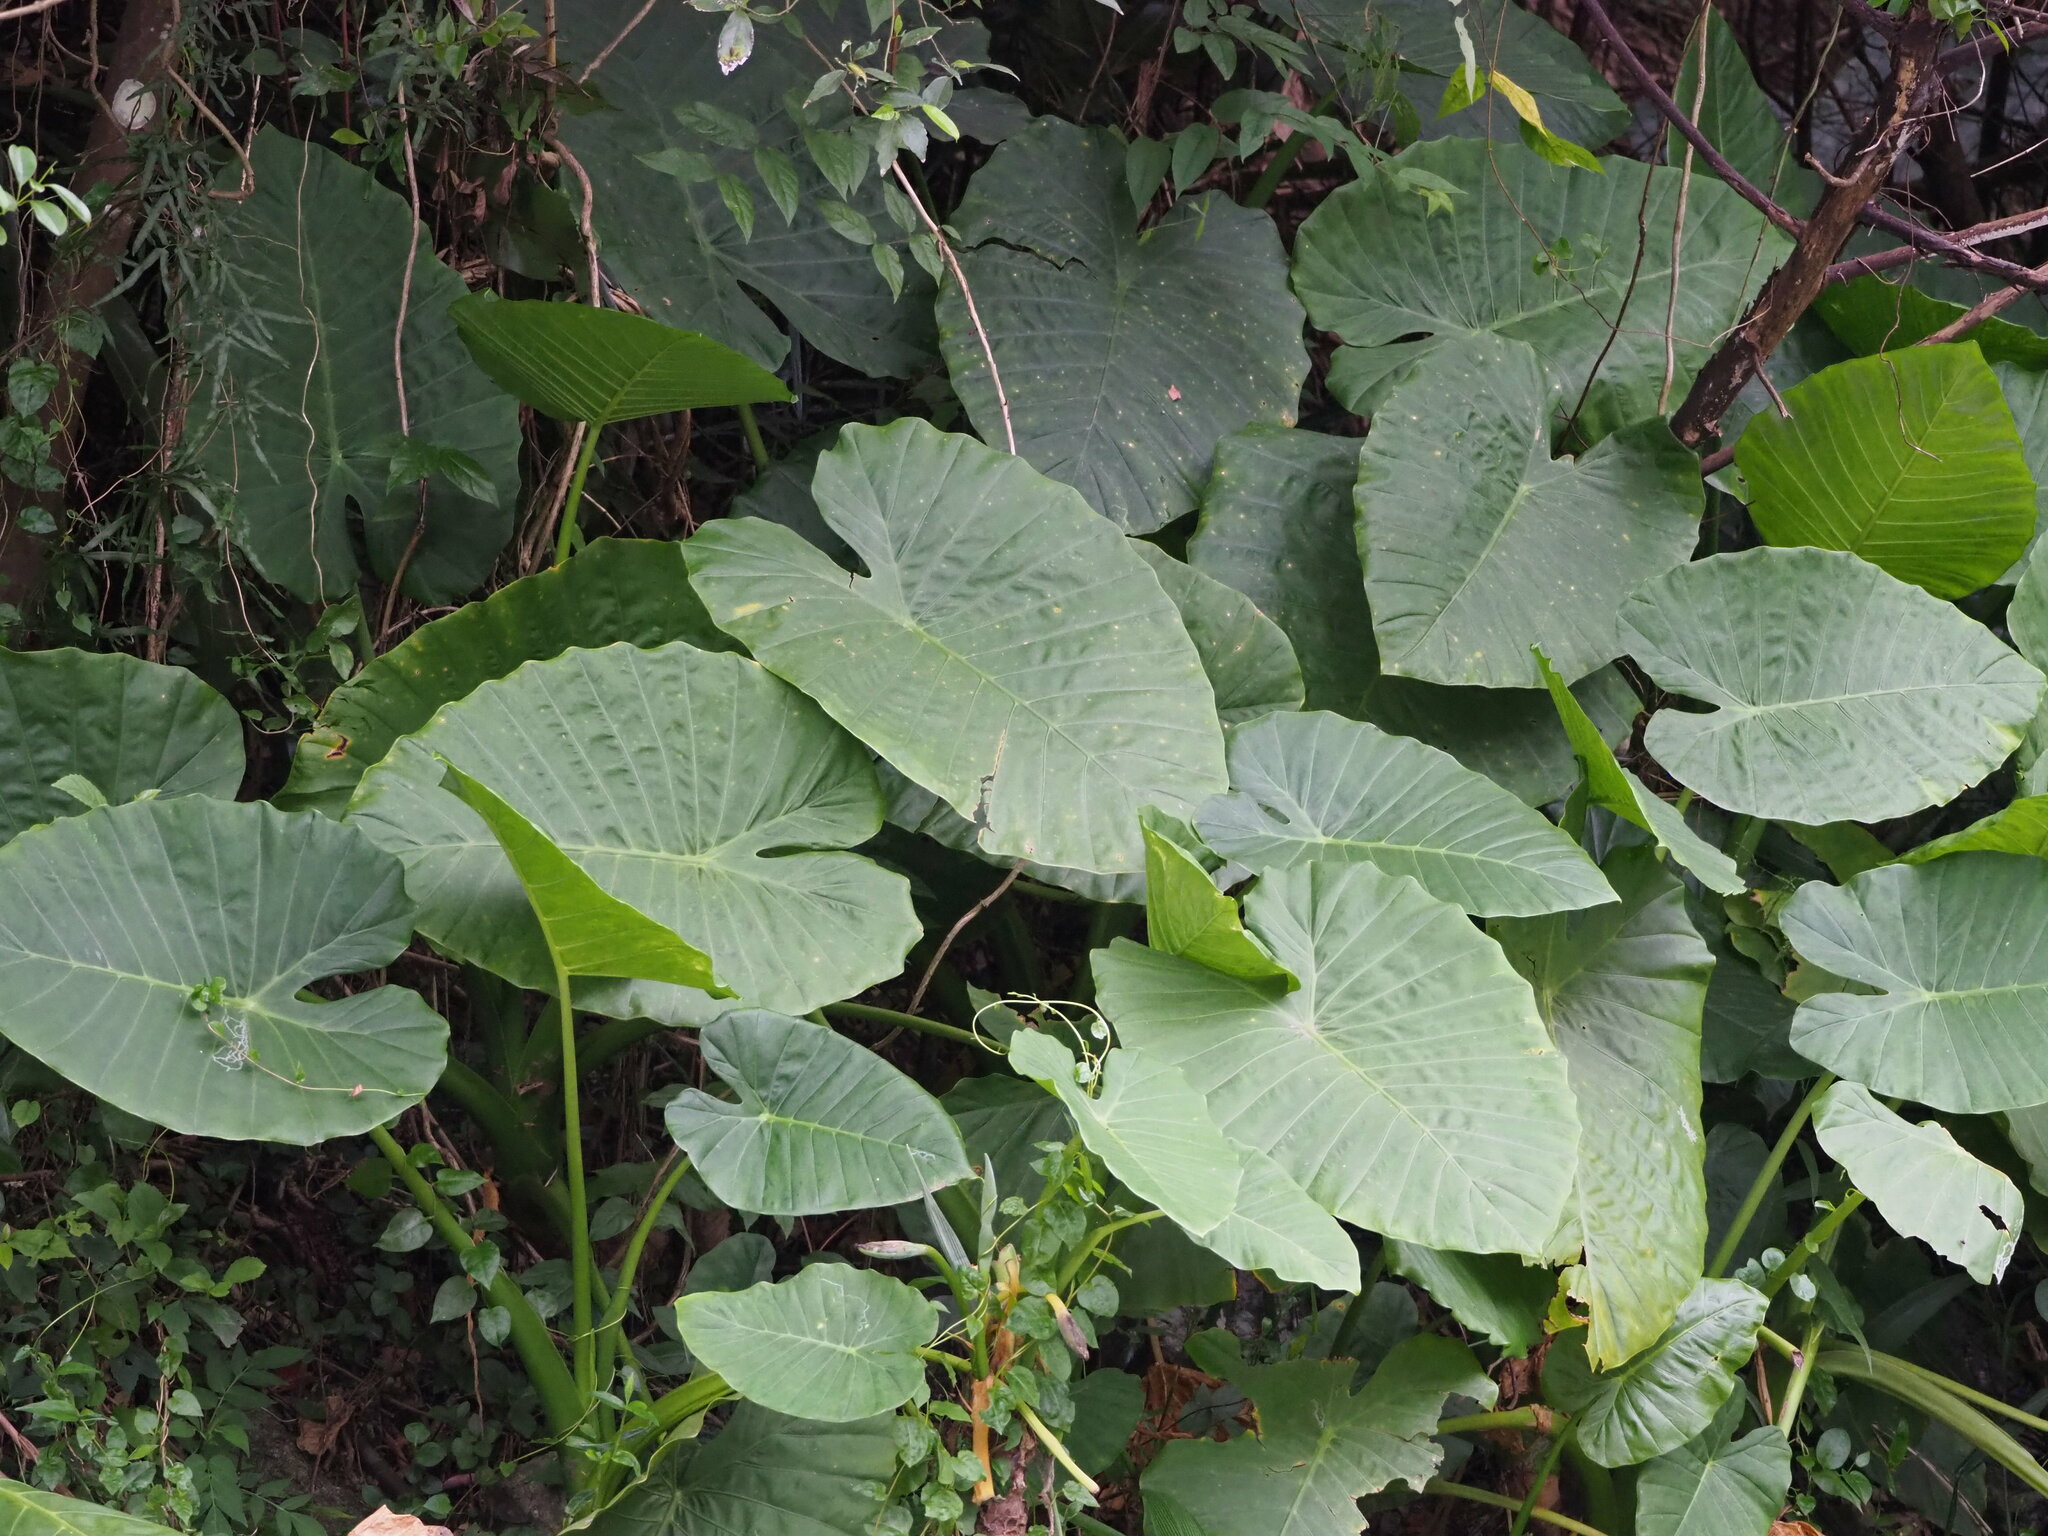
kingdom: Plantae
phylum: Tracheophyta
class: Liliopsida
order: Alismatales
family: Araceae
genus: Alocasia
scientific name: Alocasia odora
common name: Asian taro
